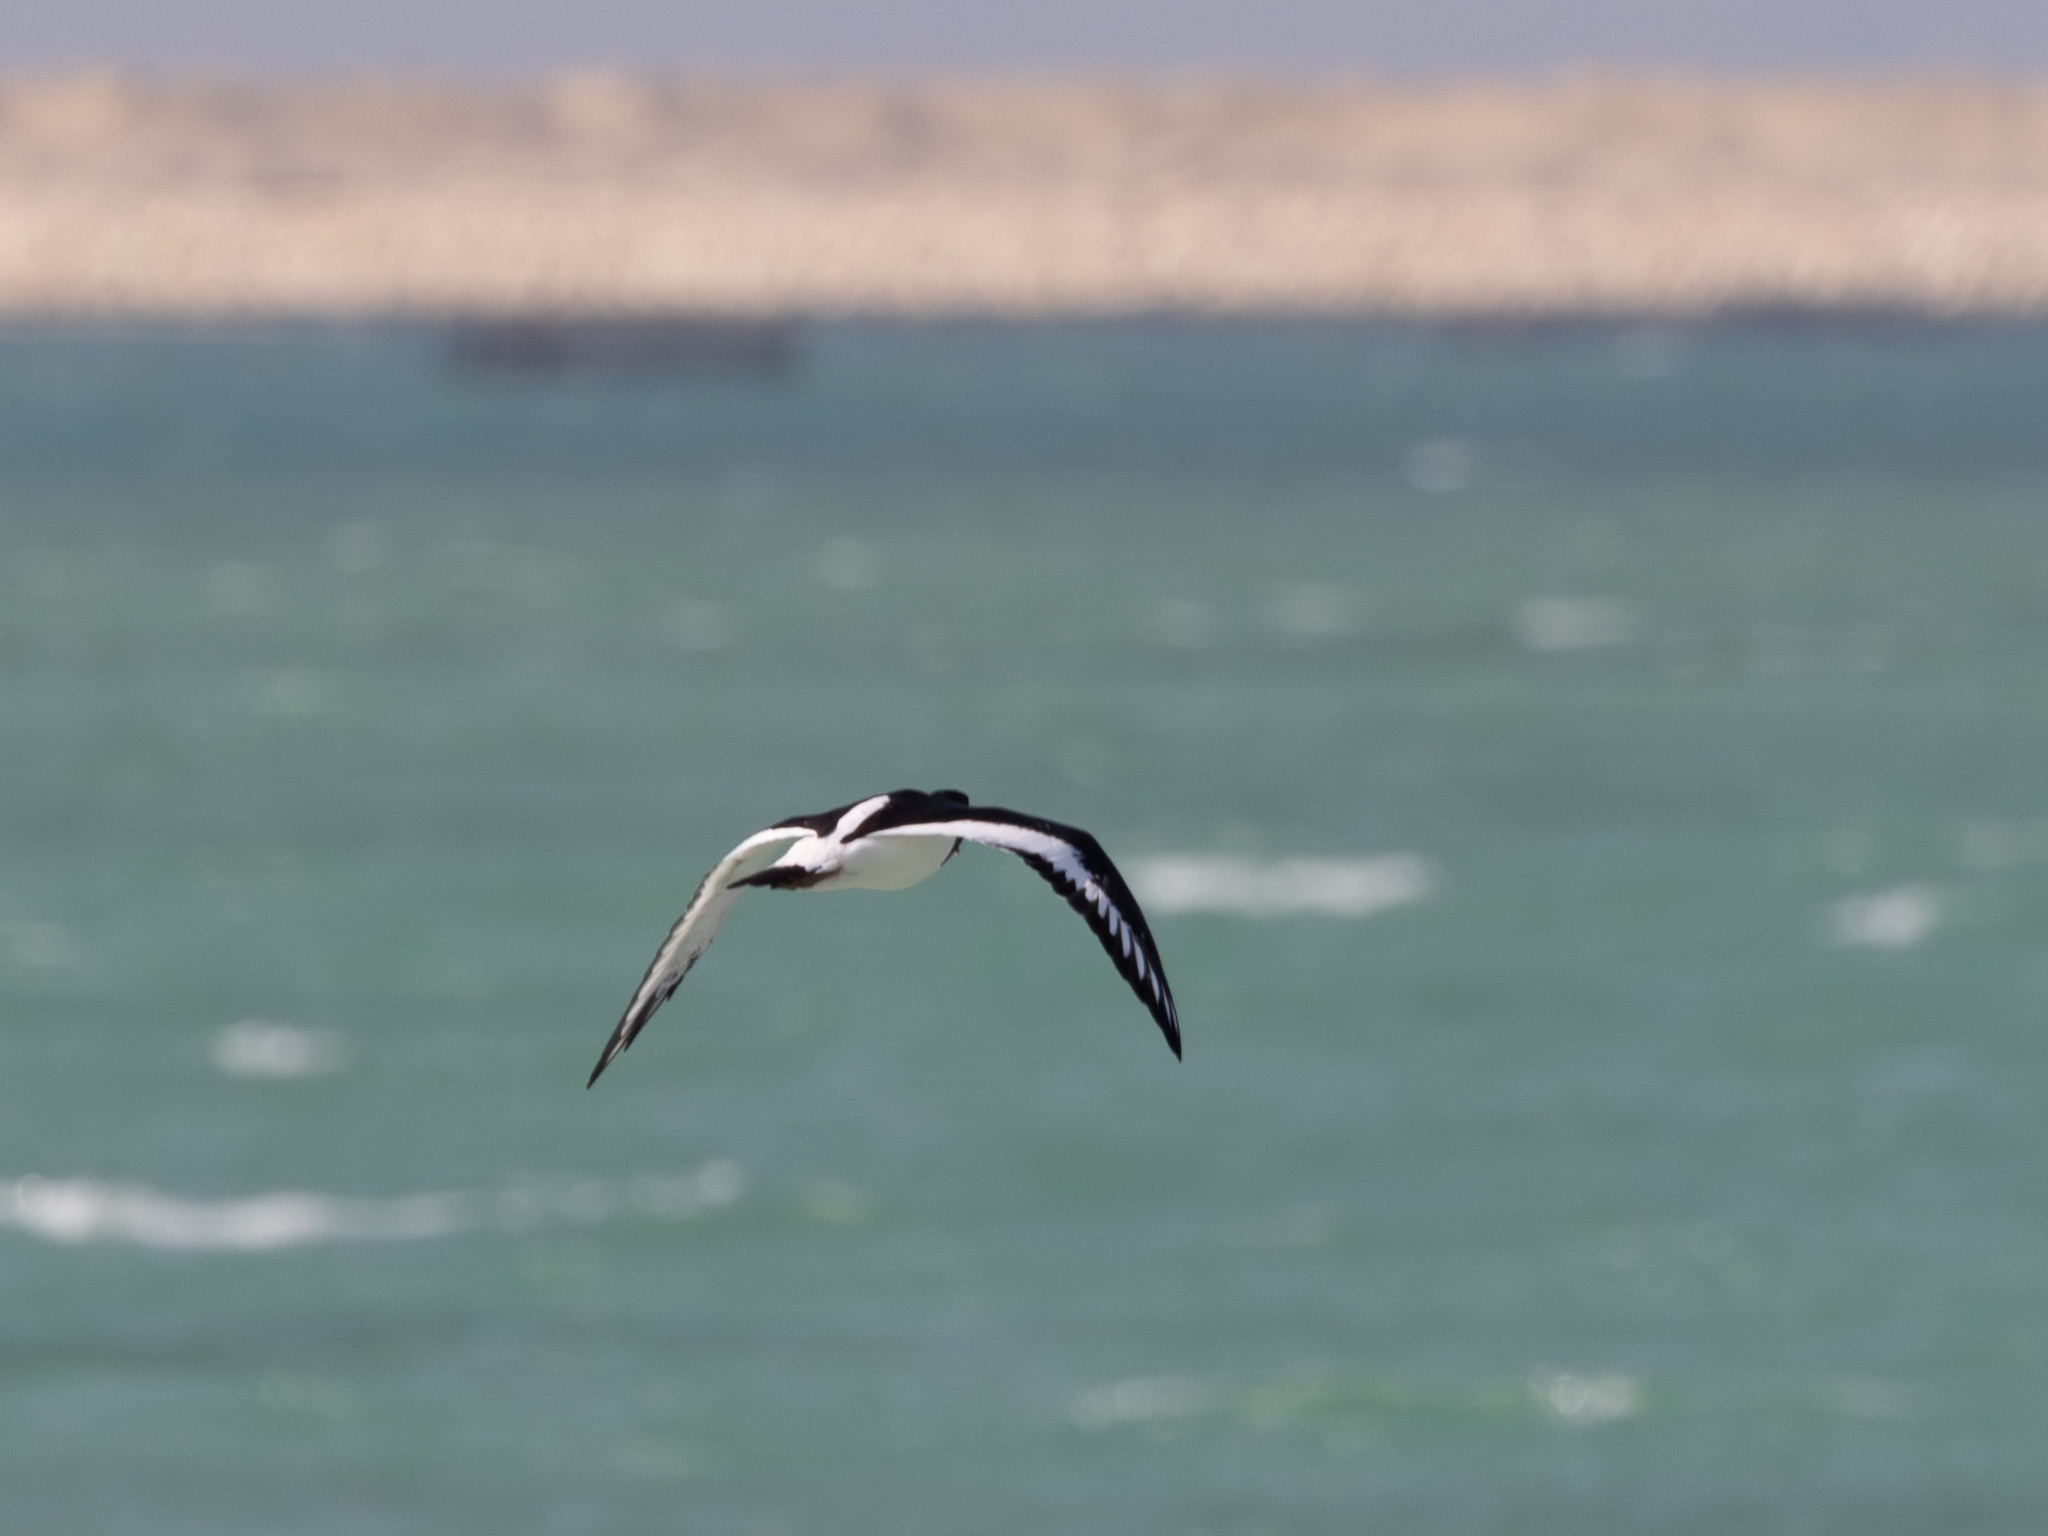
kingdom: Animalia
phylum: Chordata
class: Aves
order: Charadriiformes
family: Haematopodidae
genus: Haematopus
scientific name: Haematopus ostralegus
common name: Eurasian oystercatcher
